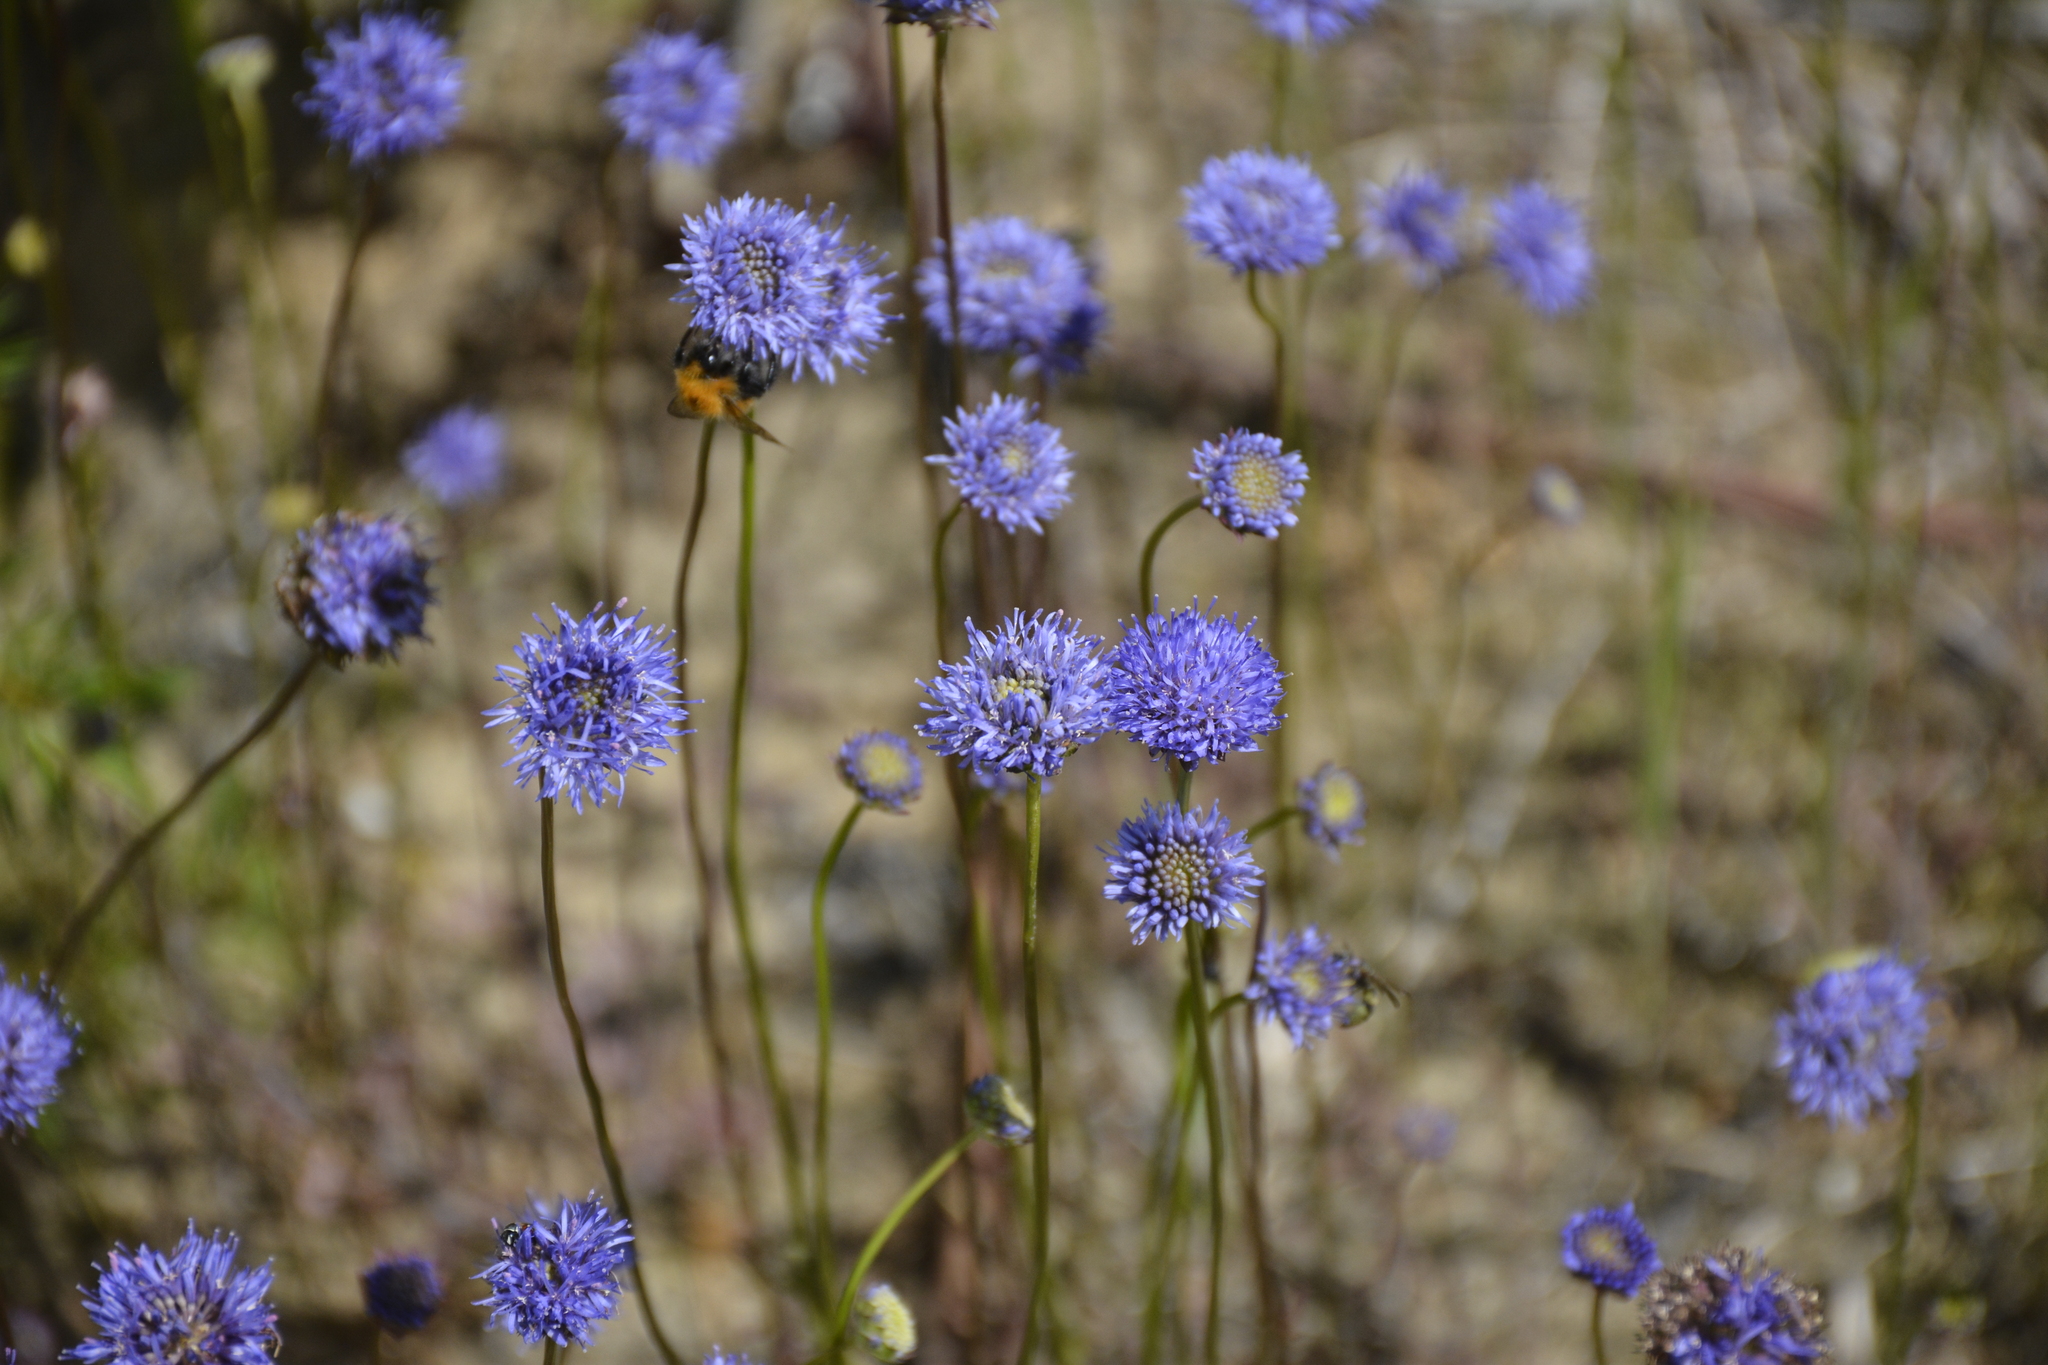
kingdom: Plantae
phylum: Tracheophyta
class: Magnoliopsida
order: Asterales
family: Campanulaceae
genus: Jasione
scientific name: Jasione montana
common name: Sheep's-bit
